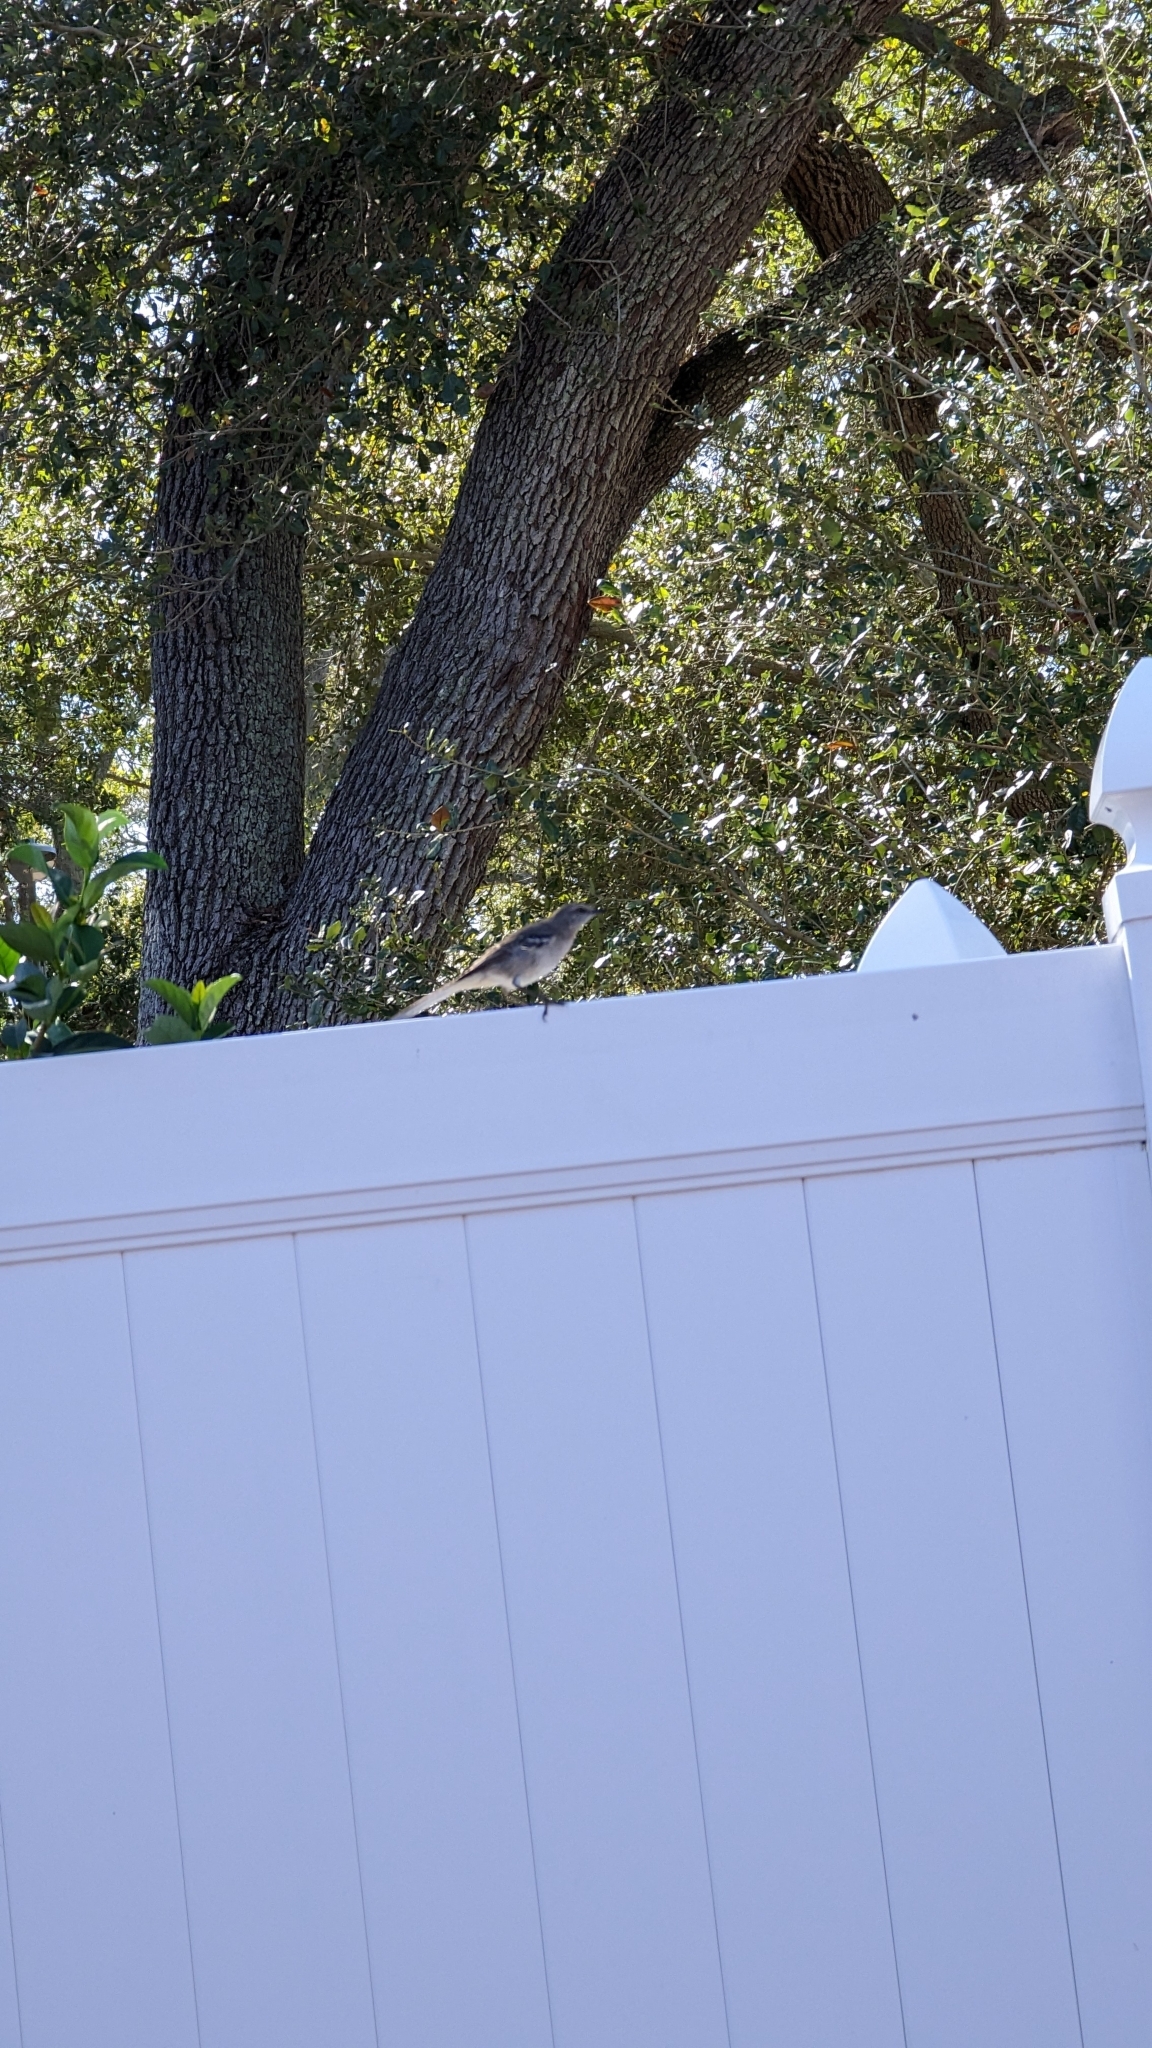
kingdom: Animalia
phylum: Chordata
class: Aves
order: Passeriformes
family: Mimidae
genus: Mimus
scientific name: Mimus polyglottos
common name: Northern mockingbird
